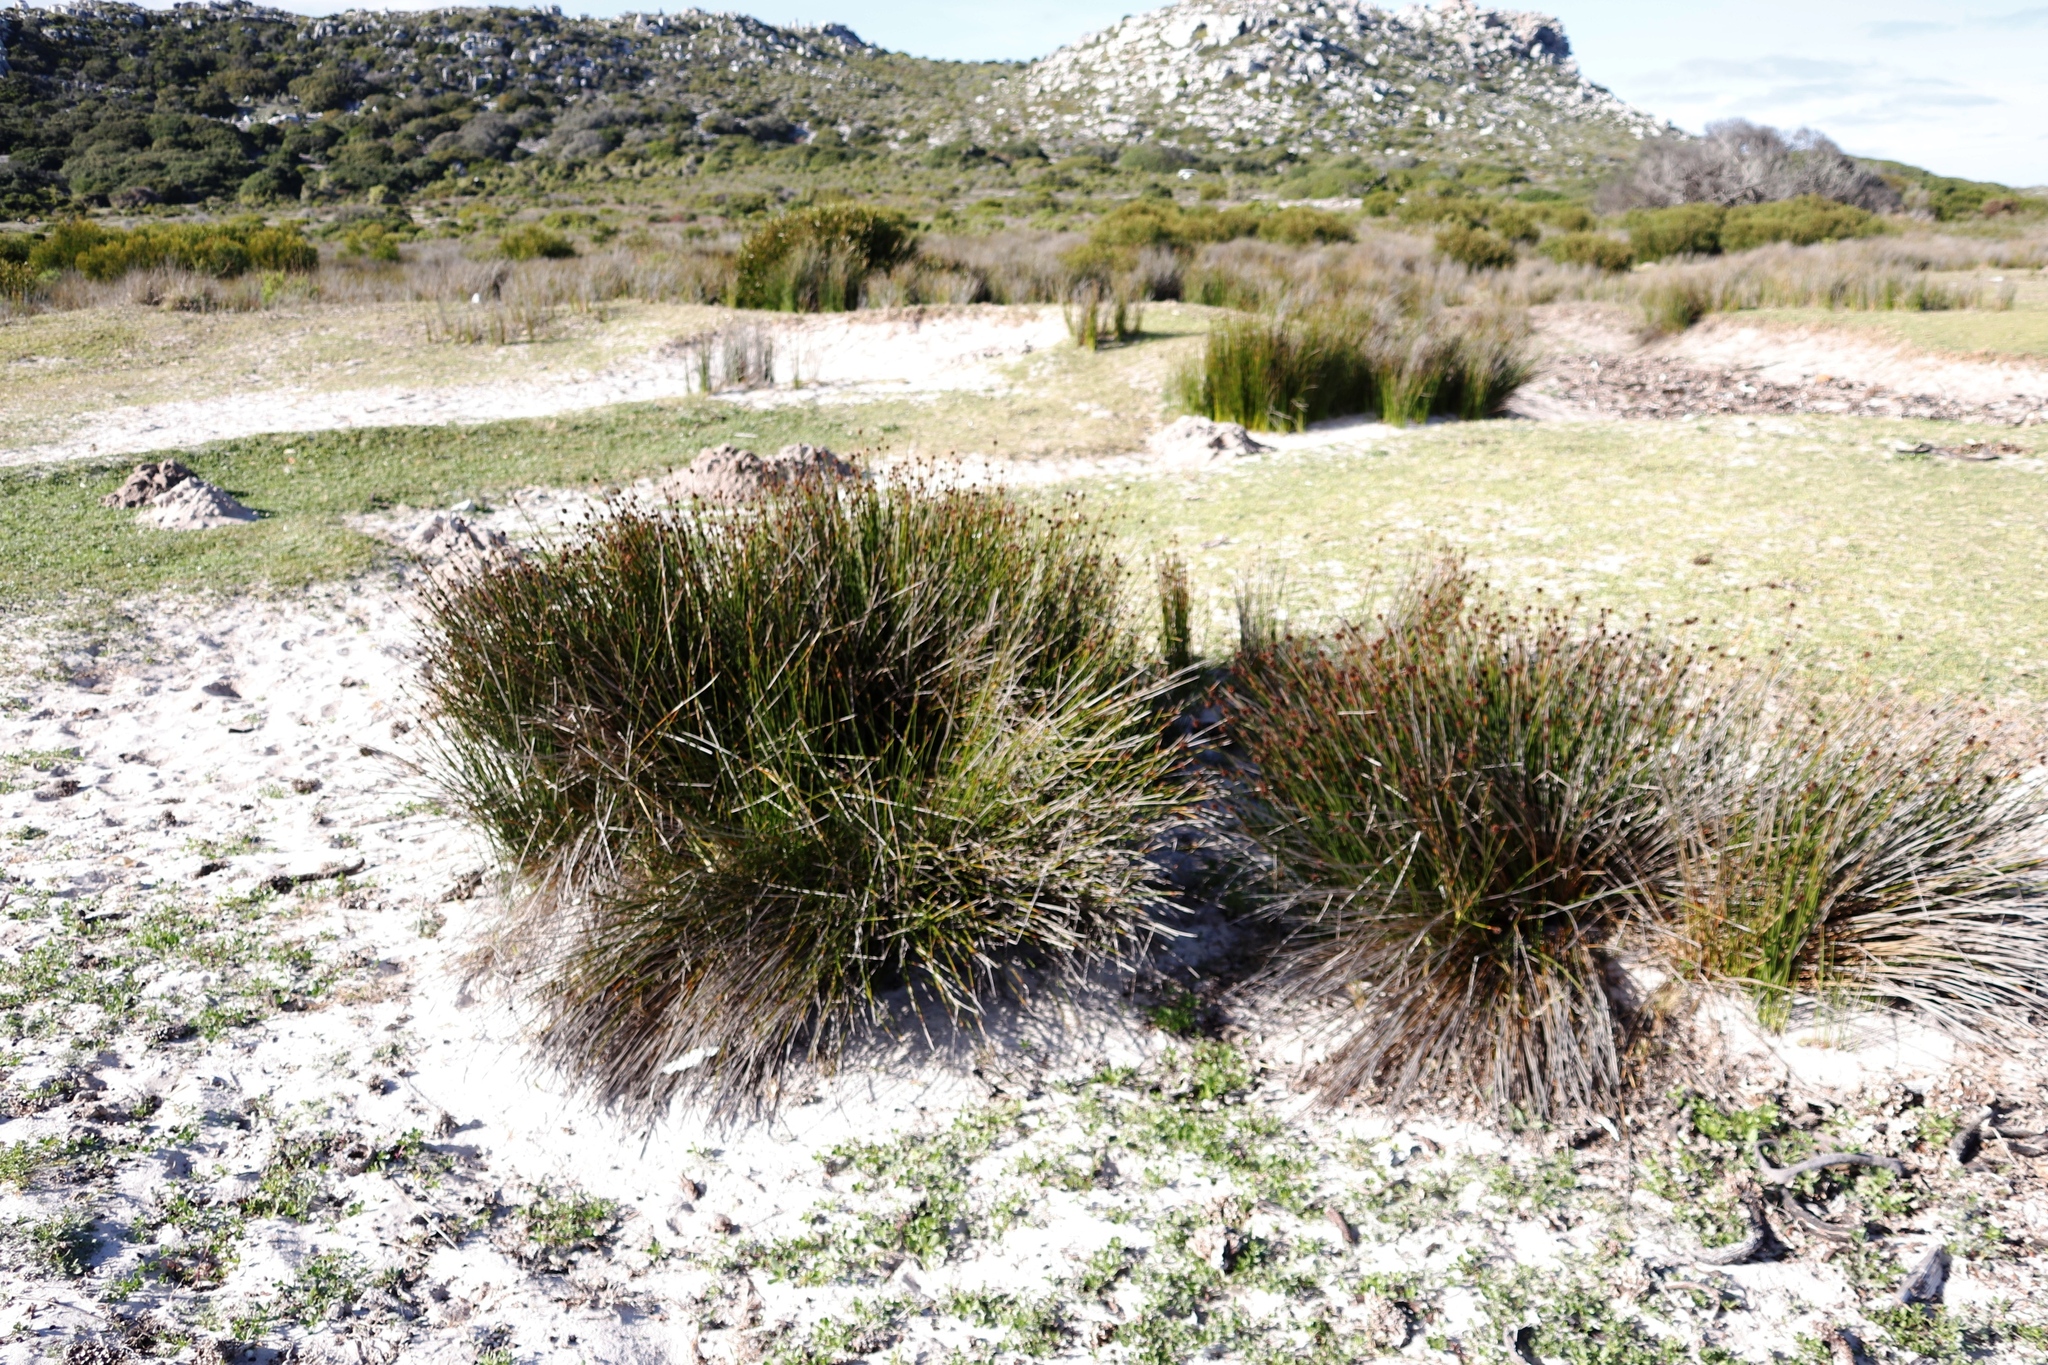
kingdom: Plantae
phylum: Tracheophyta
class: Liliopsida
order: Poales
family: Cyperaceae
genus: Ficinia
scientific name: Ficinia nodosa
